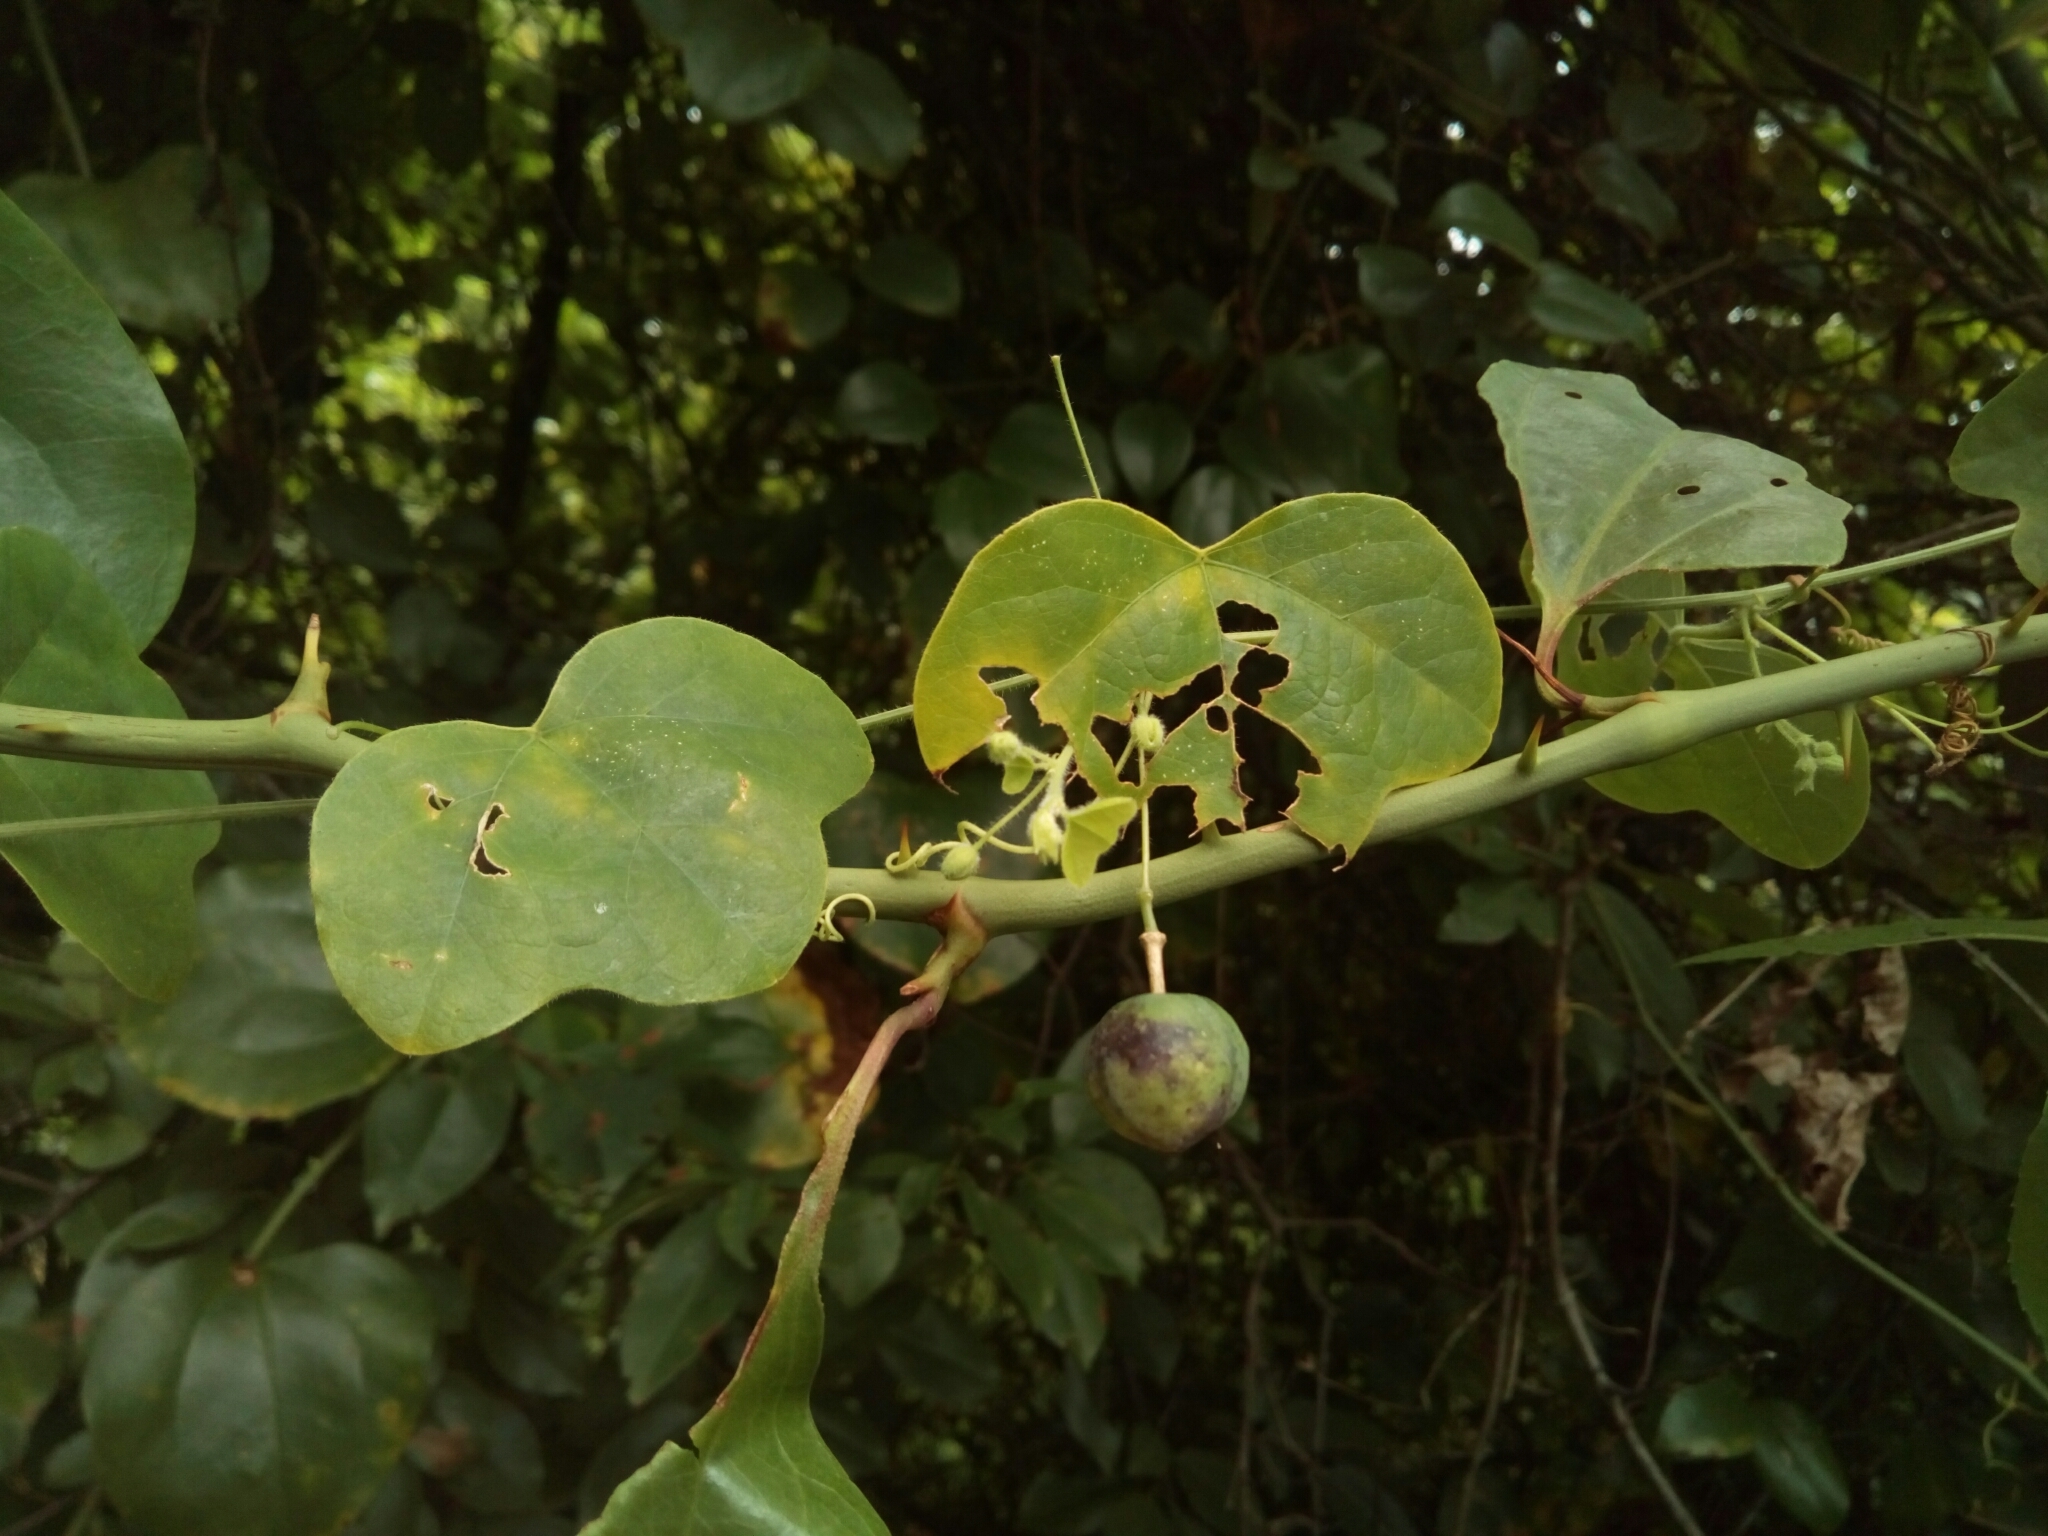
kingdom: Plantae
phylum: Tracheophyta
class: Magnoliopsida
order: Malpighiales
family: Passifloraceae
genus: Passiflora
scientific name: Passiflora lutea
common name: Yellow passionflower
